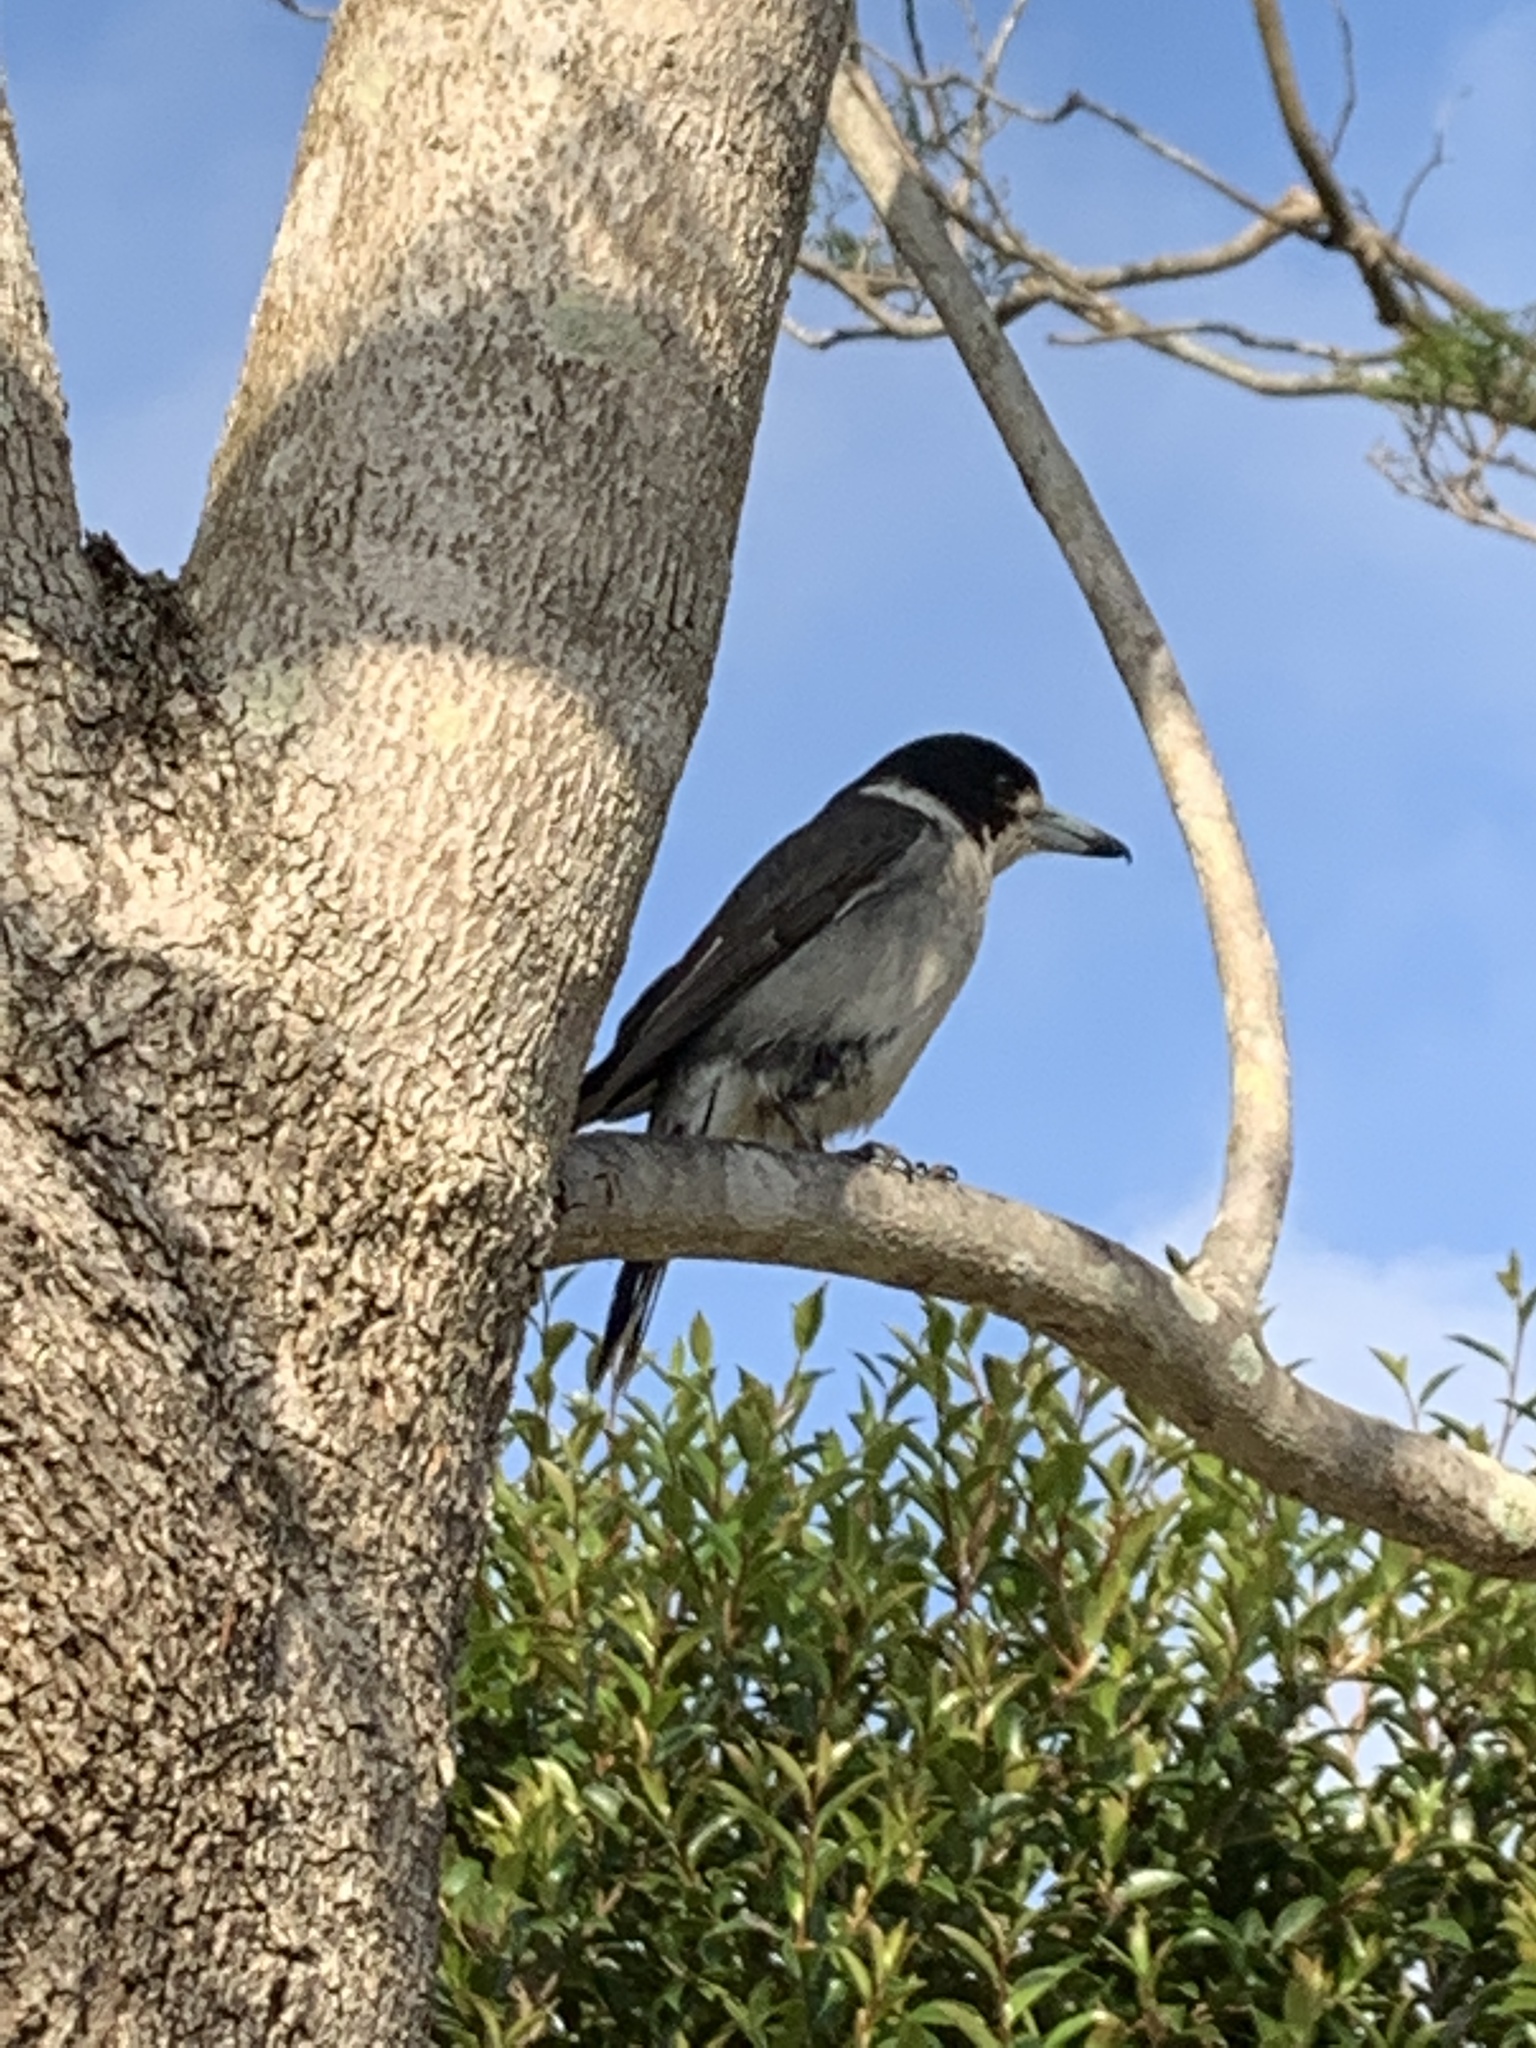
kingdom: Animalia
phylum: Chordata
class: Aves
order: Passeriformes
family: Cracticidae
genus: Cracticus
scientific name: Cracticus torquatus
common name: Grey butcherbird
